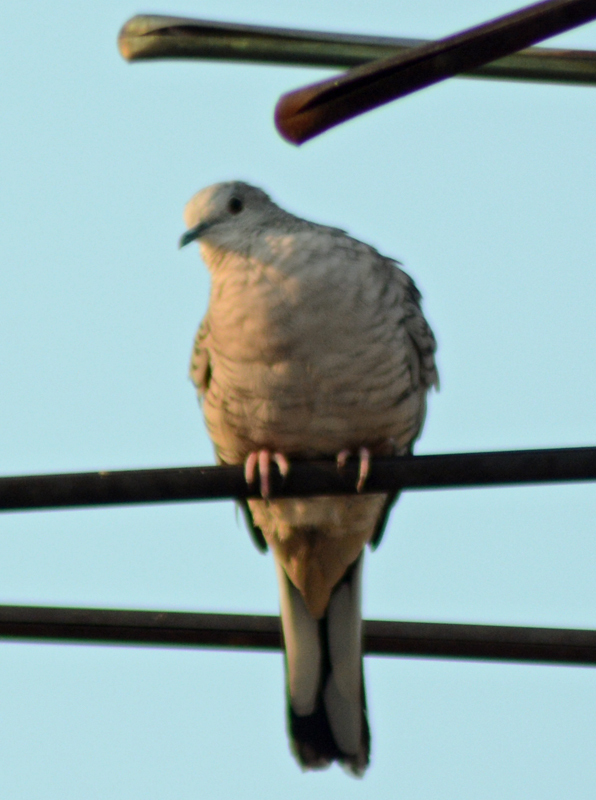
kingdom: Animalia
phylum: Chordata
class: Aves
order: Columbiformes
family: Columbidae
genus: Columbina
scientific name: Columbina inca
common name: Inca dove
